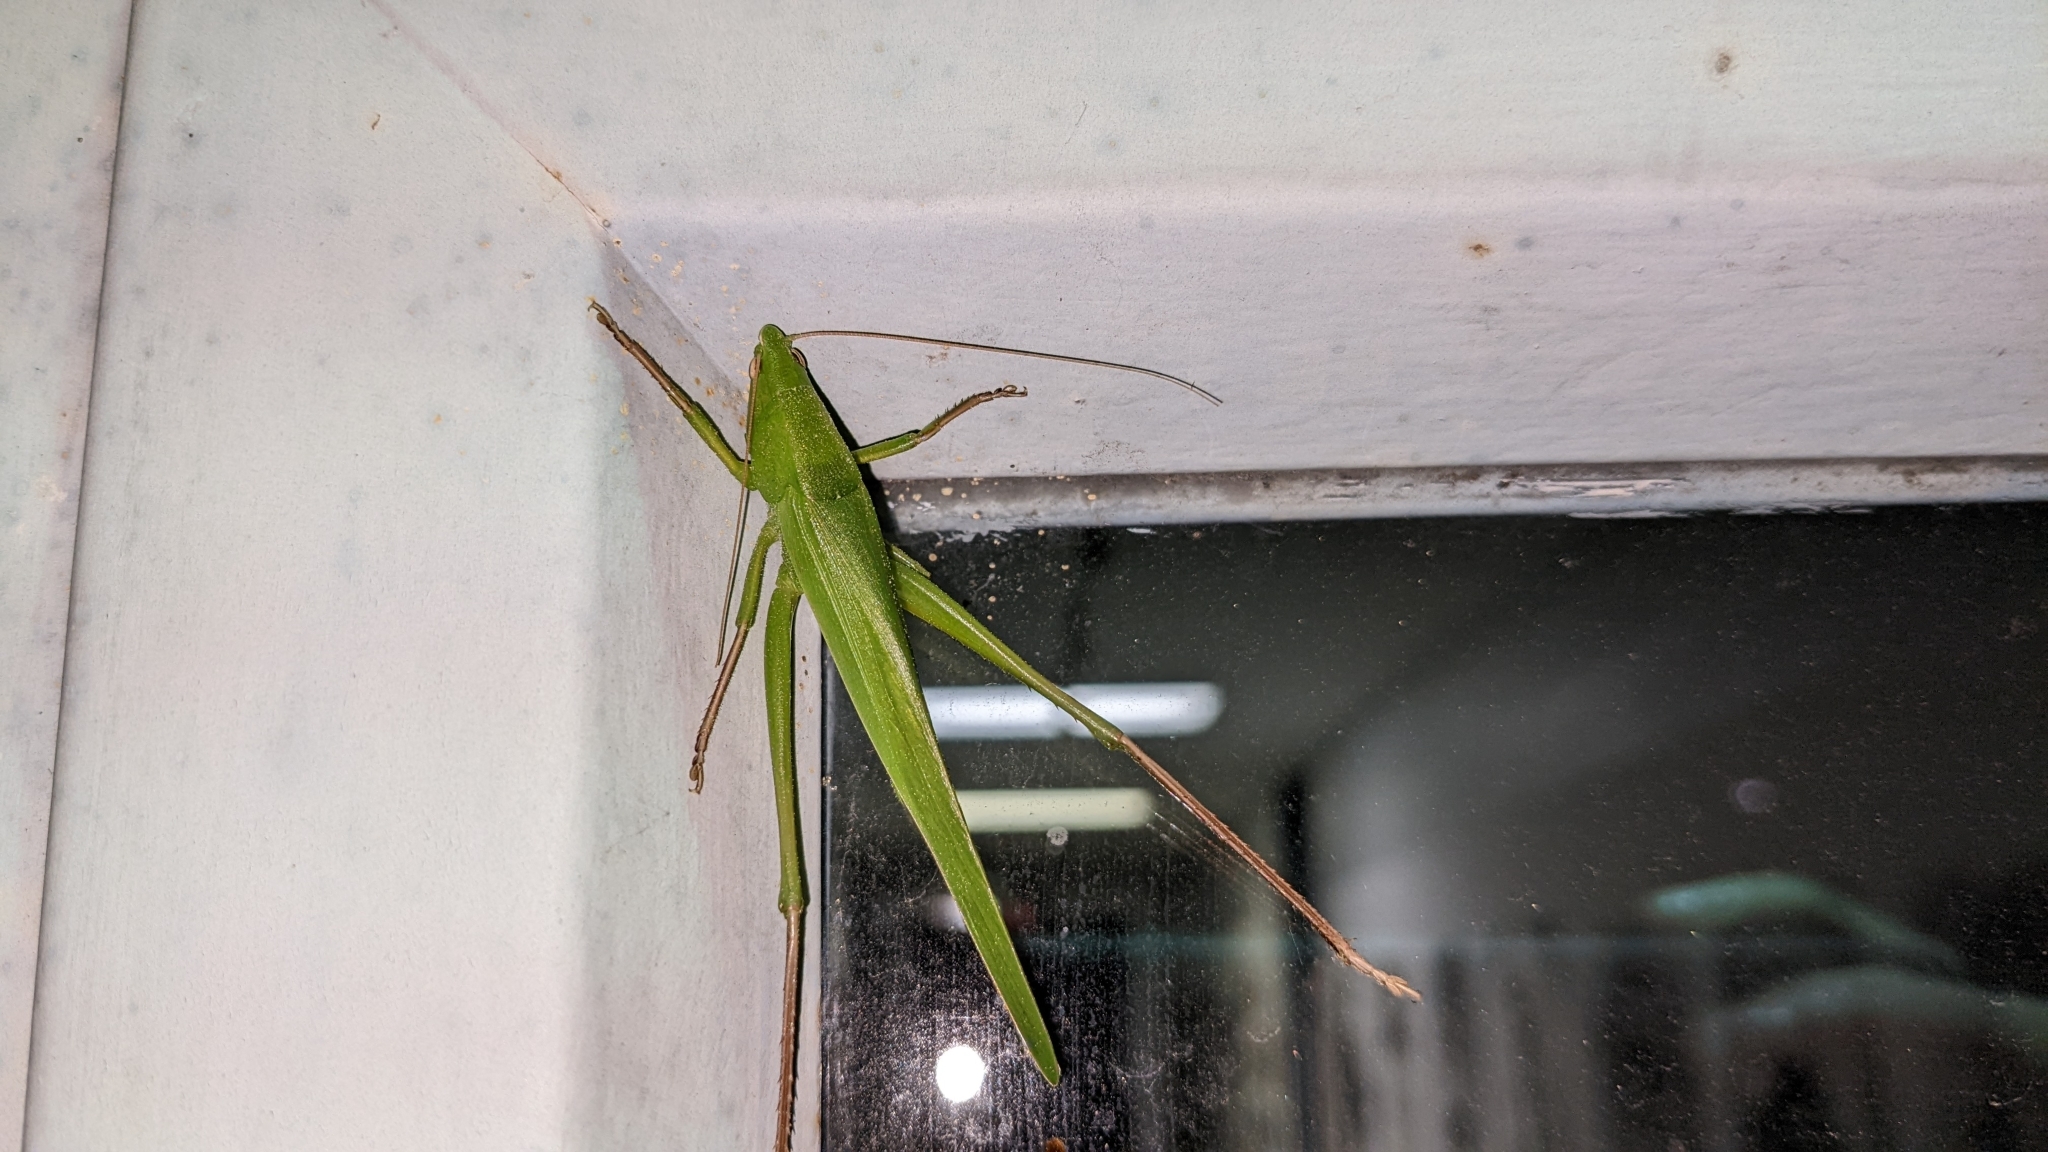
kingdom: Animalia
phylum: Arthropoda
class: Insecta
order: Orthoptera
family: Tettigoniidae
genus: Neoconocephalus
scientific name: Neoconocephalus triops
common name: Broad-tipped conehead
